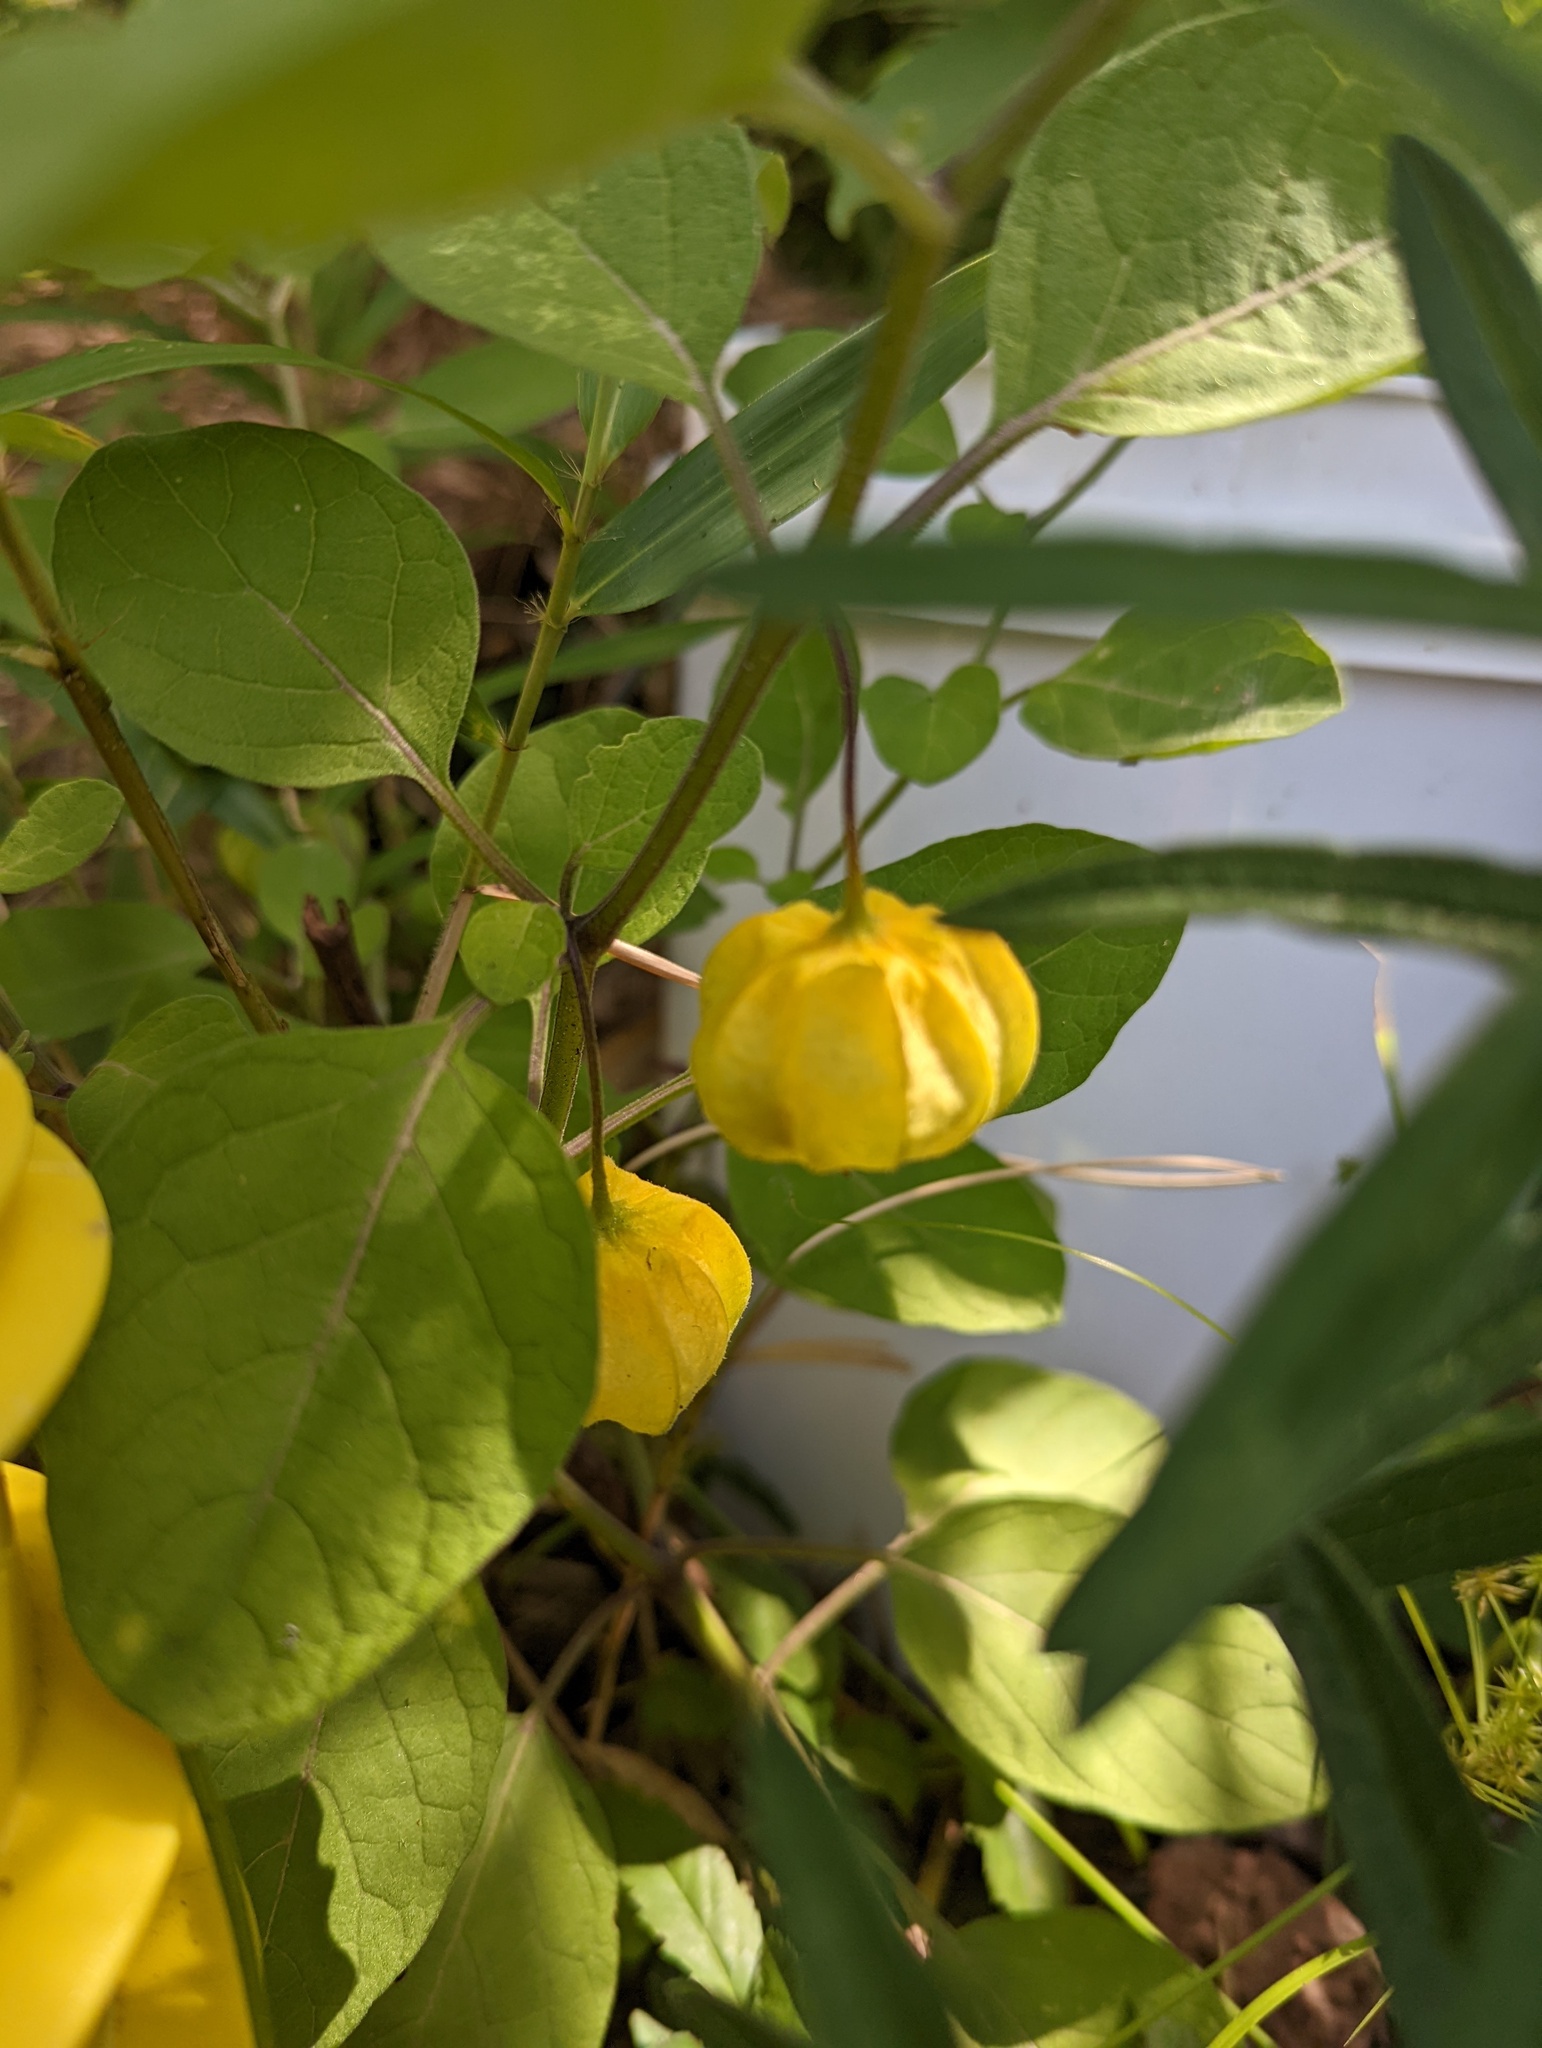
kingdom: Plantae
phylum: Tracheophyta
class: Magnoliopsida
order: Solanales
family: Solanaceae
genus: Physalis
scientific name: Physalis walteri
